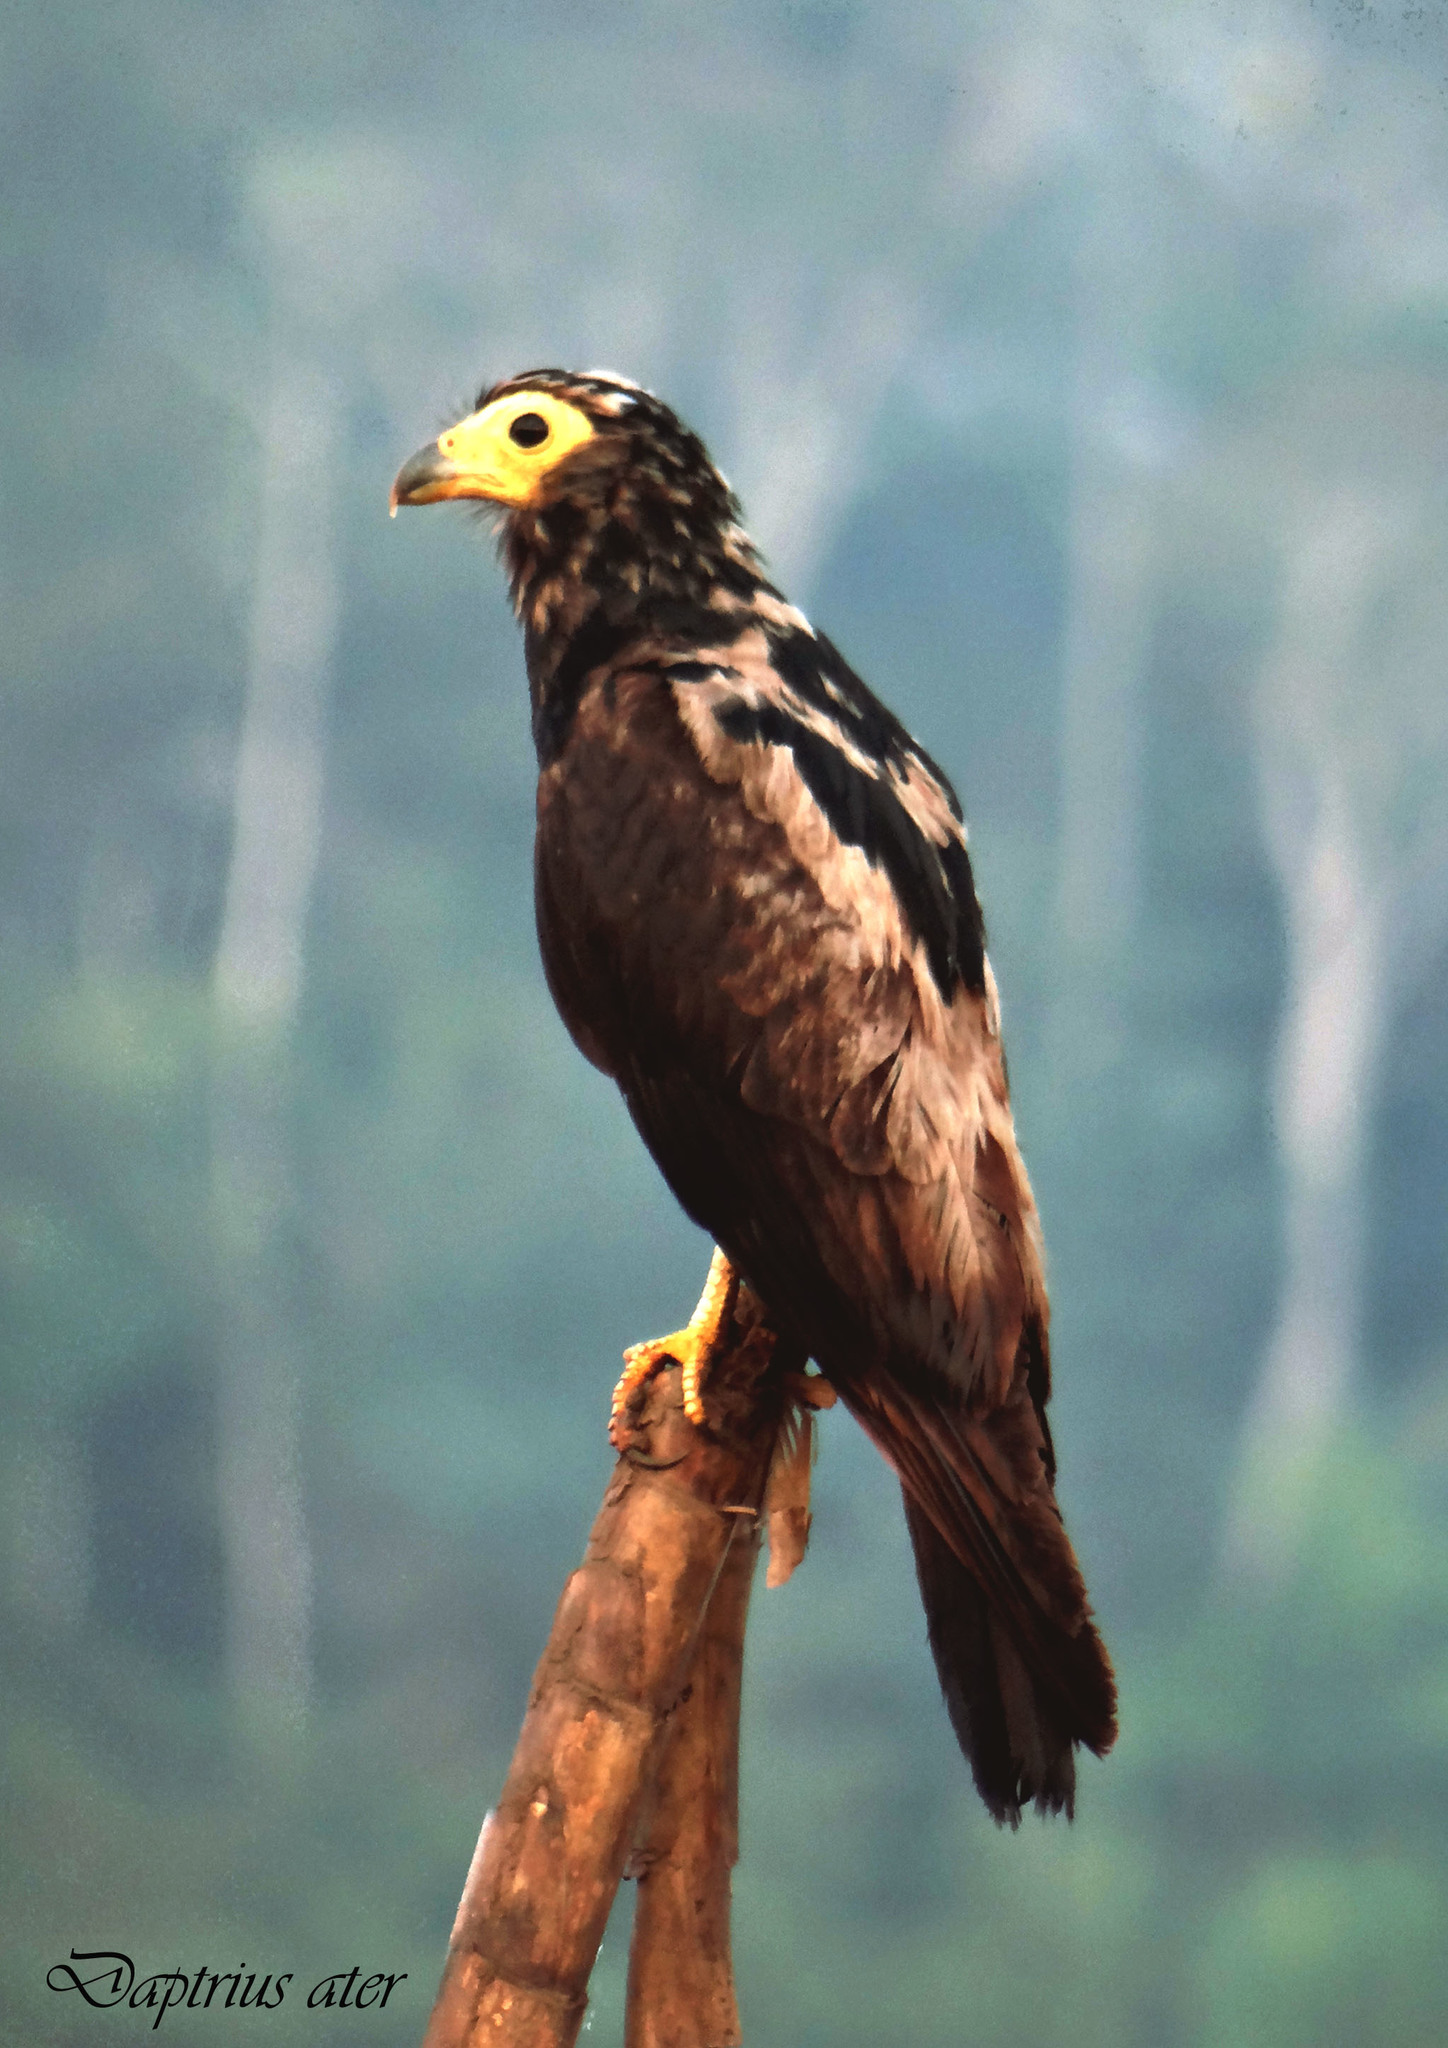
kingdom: Animalia
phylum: Chordata
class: Aves
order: Falconiformes
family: Falconidae
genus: Daptrius
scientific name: Daptrius ater
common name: Black caracara
